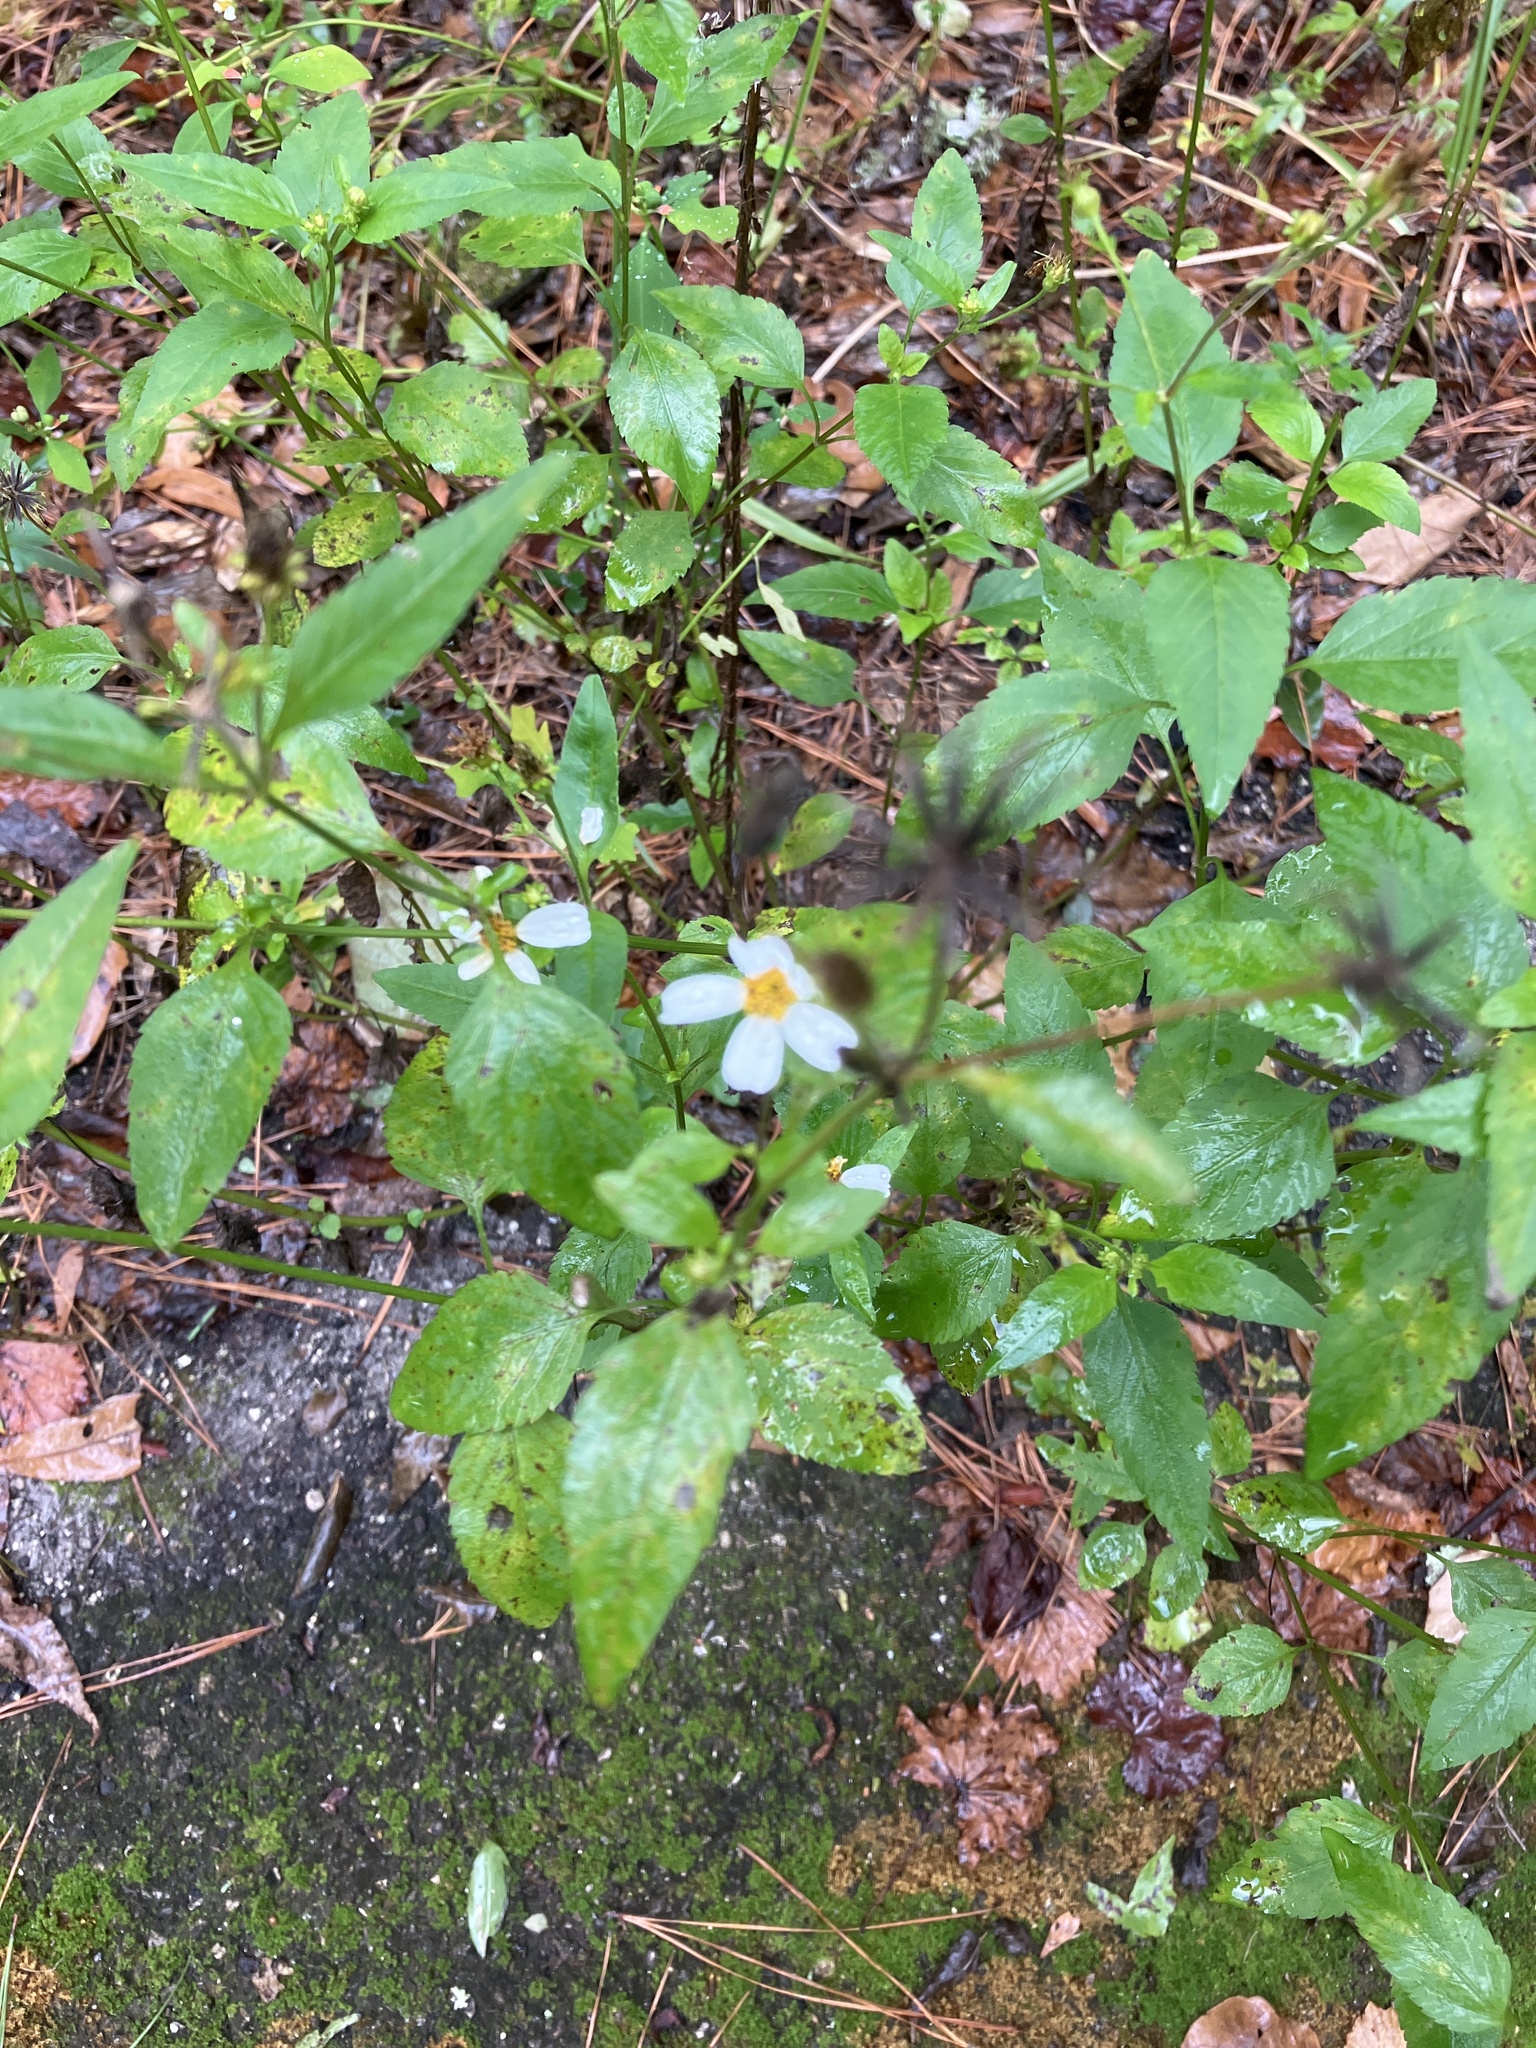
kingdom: Plantae
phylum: Tracheophyta
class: Magnoliopsida
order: Asterales
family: Asteraceae
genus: Bidens
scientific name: Bidens alba
